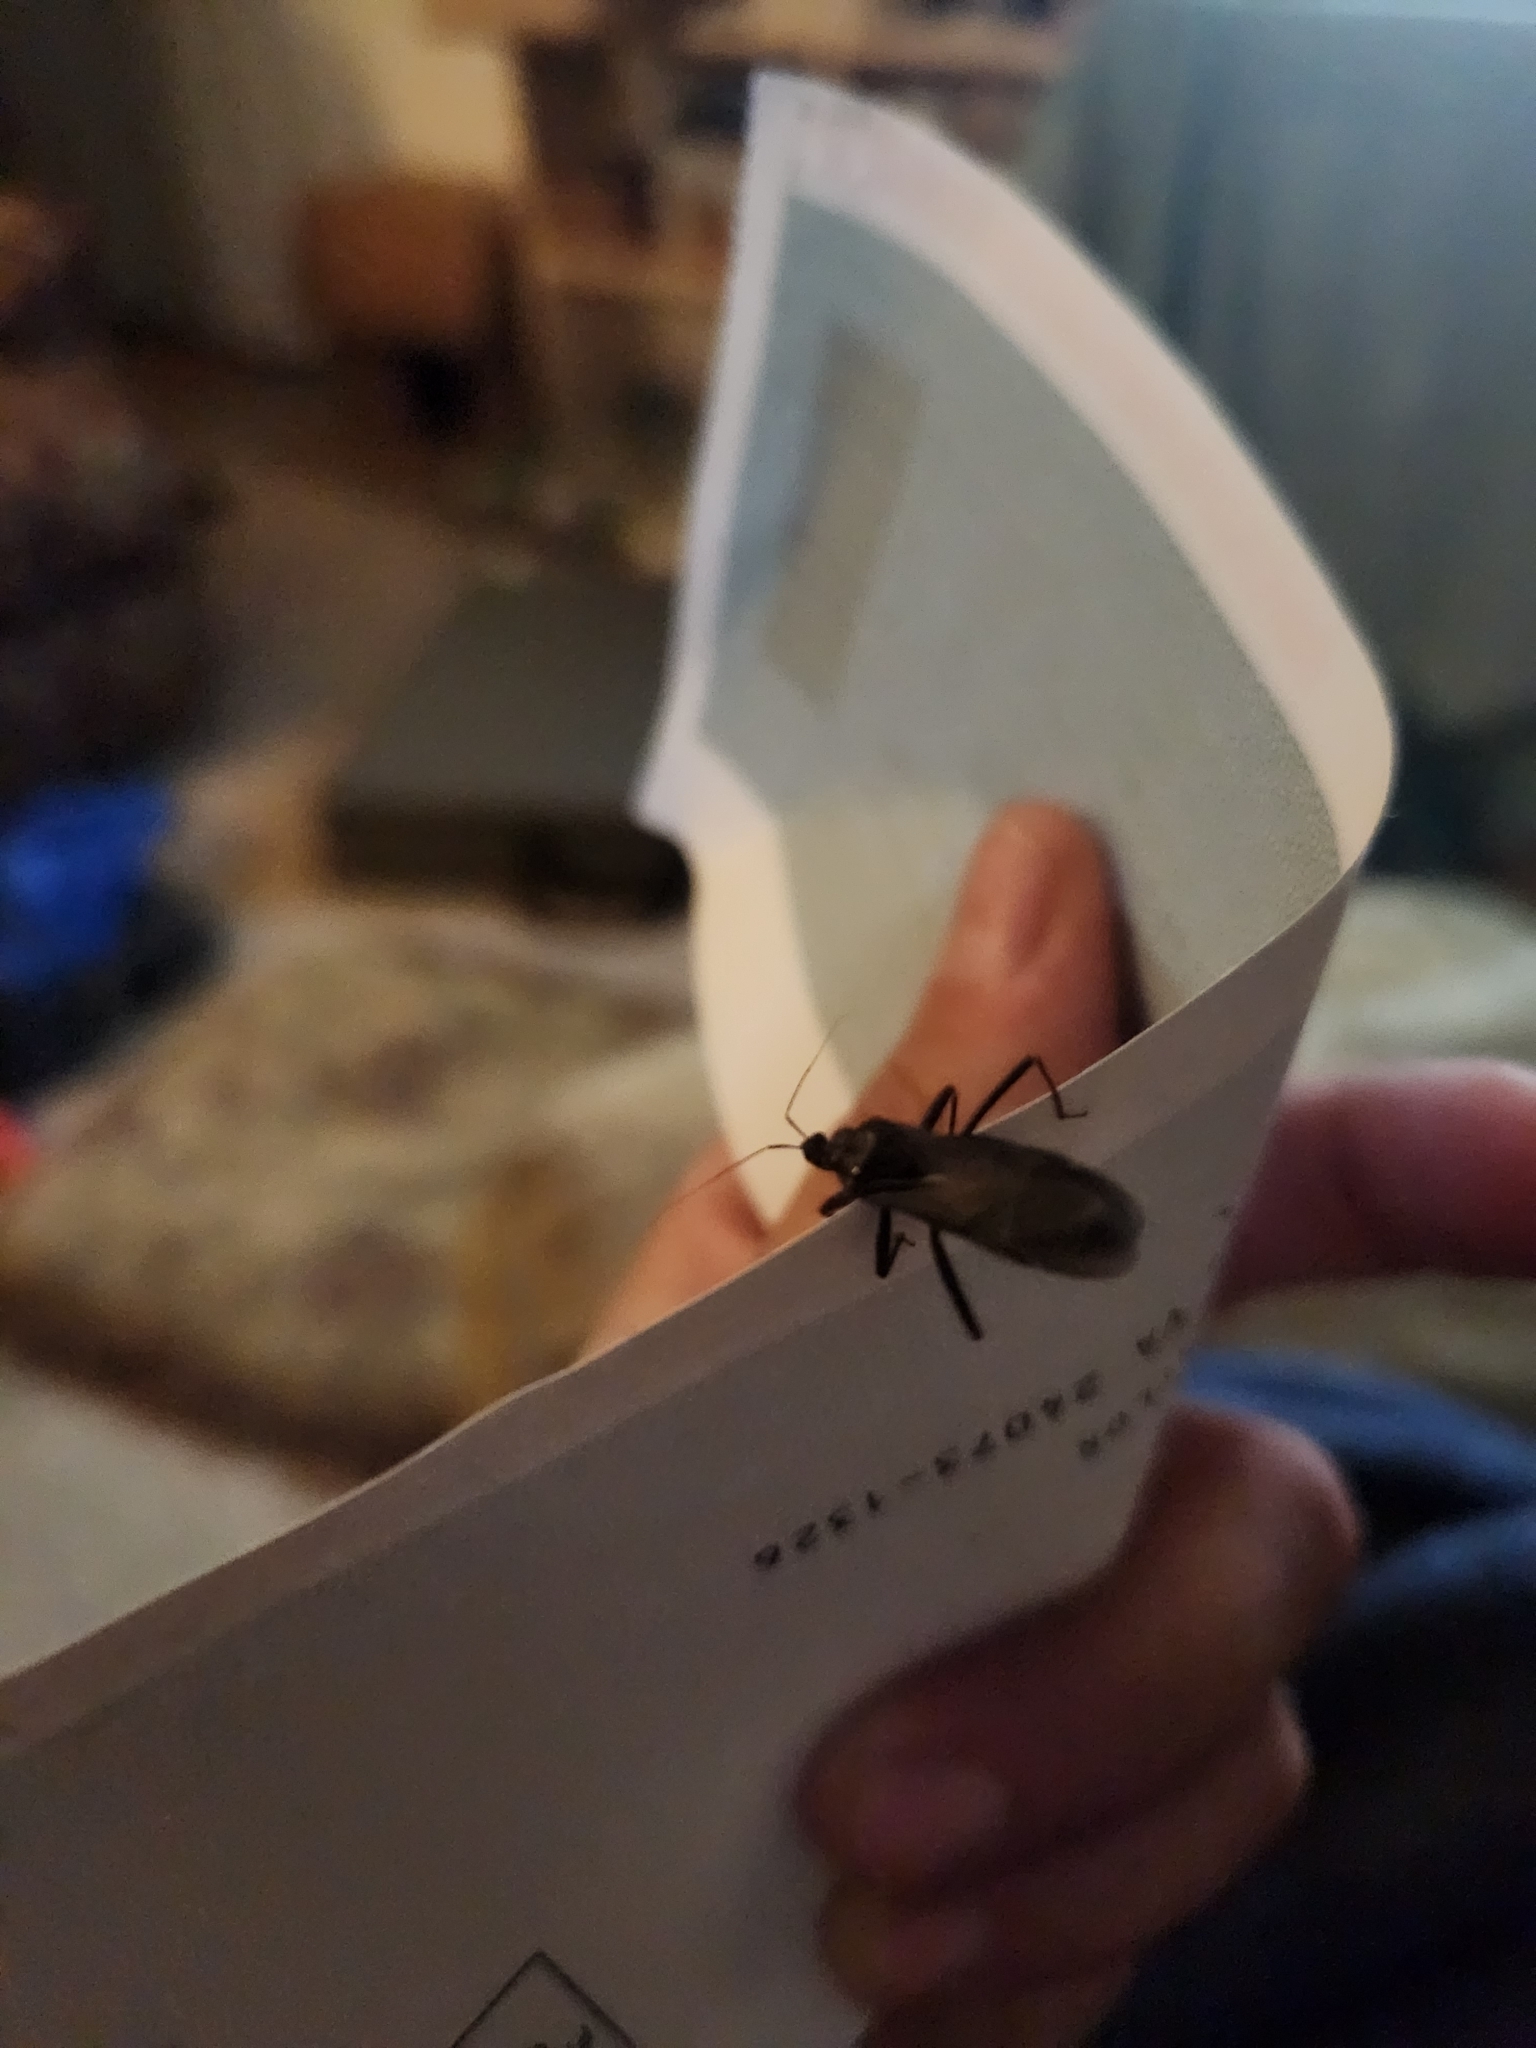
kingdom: Animalia
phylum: Arthropoda
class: Insecta
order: Hemiptera
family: Reduviidae
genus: Reduvius
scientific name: Reduvius personatus
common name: Masked hunter
